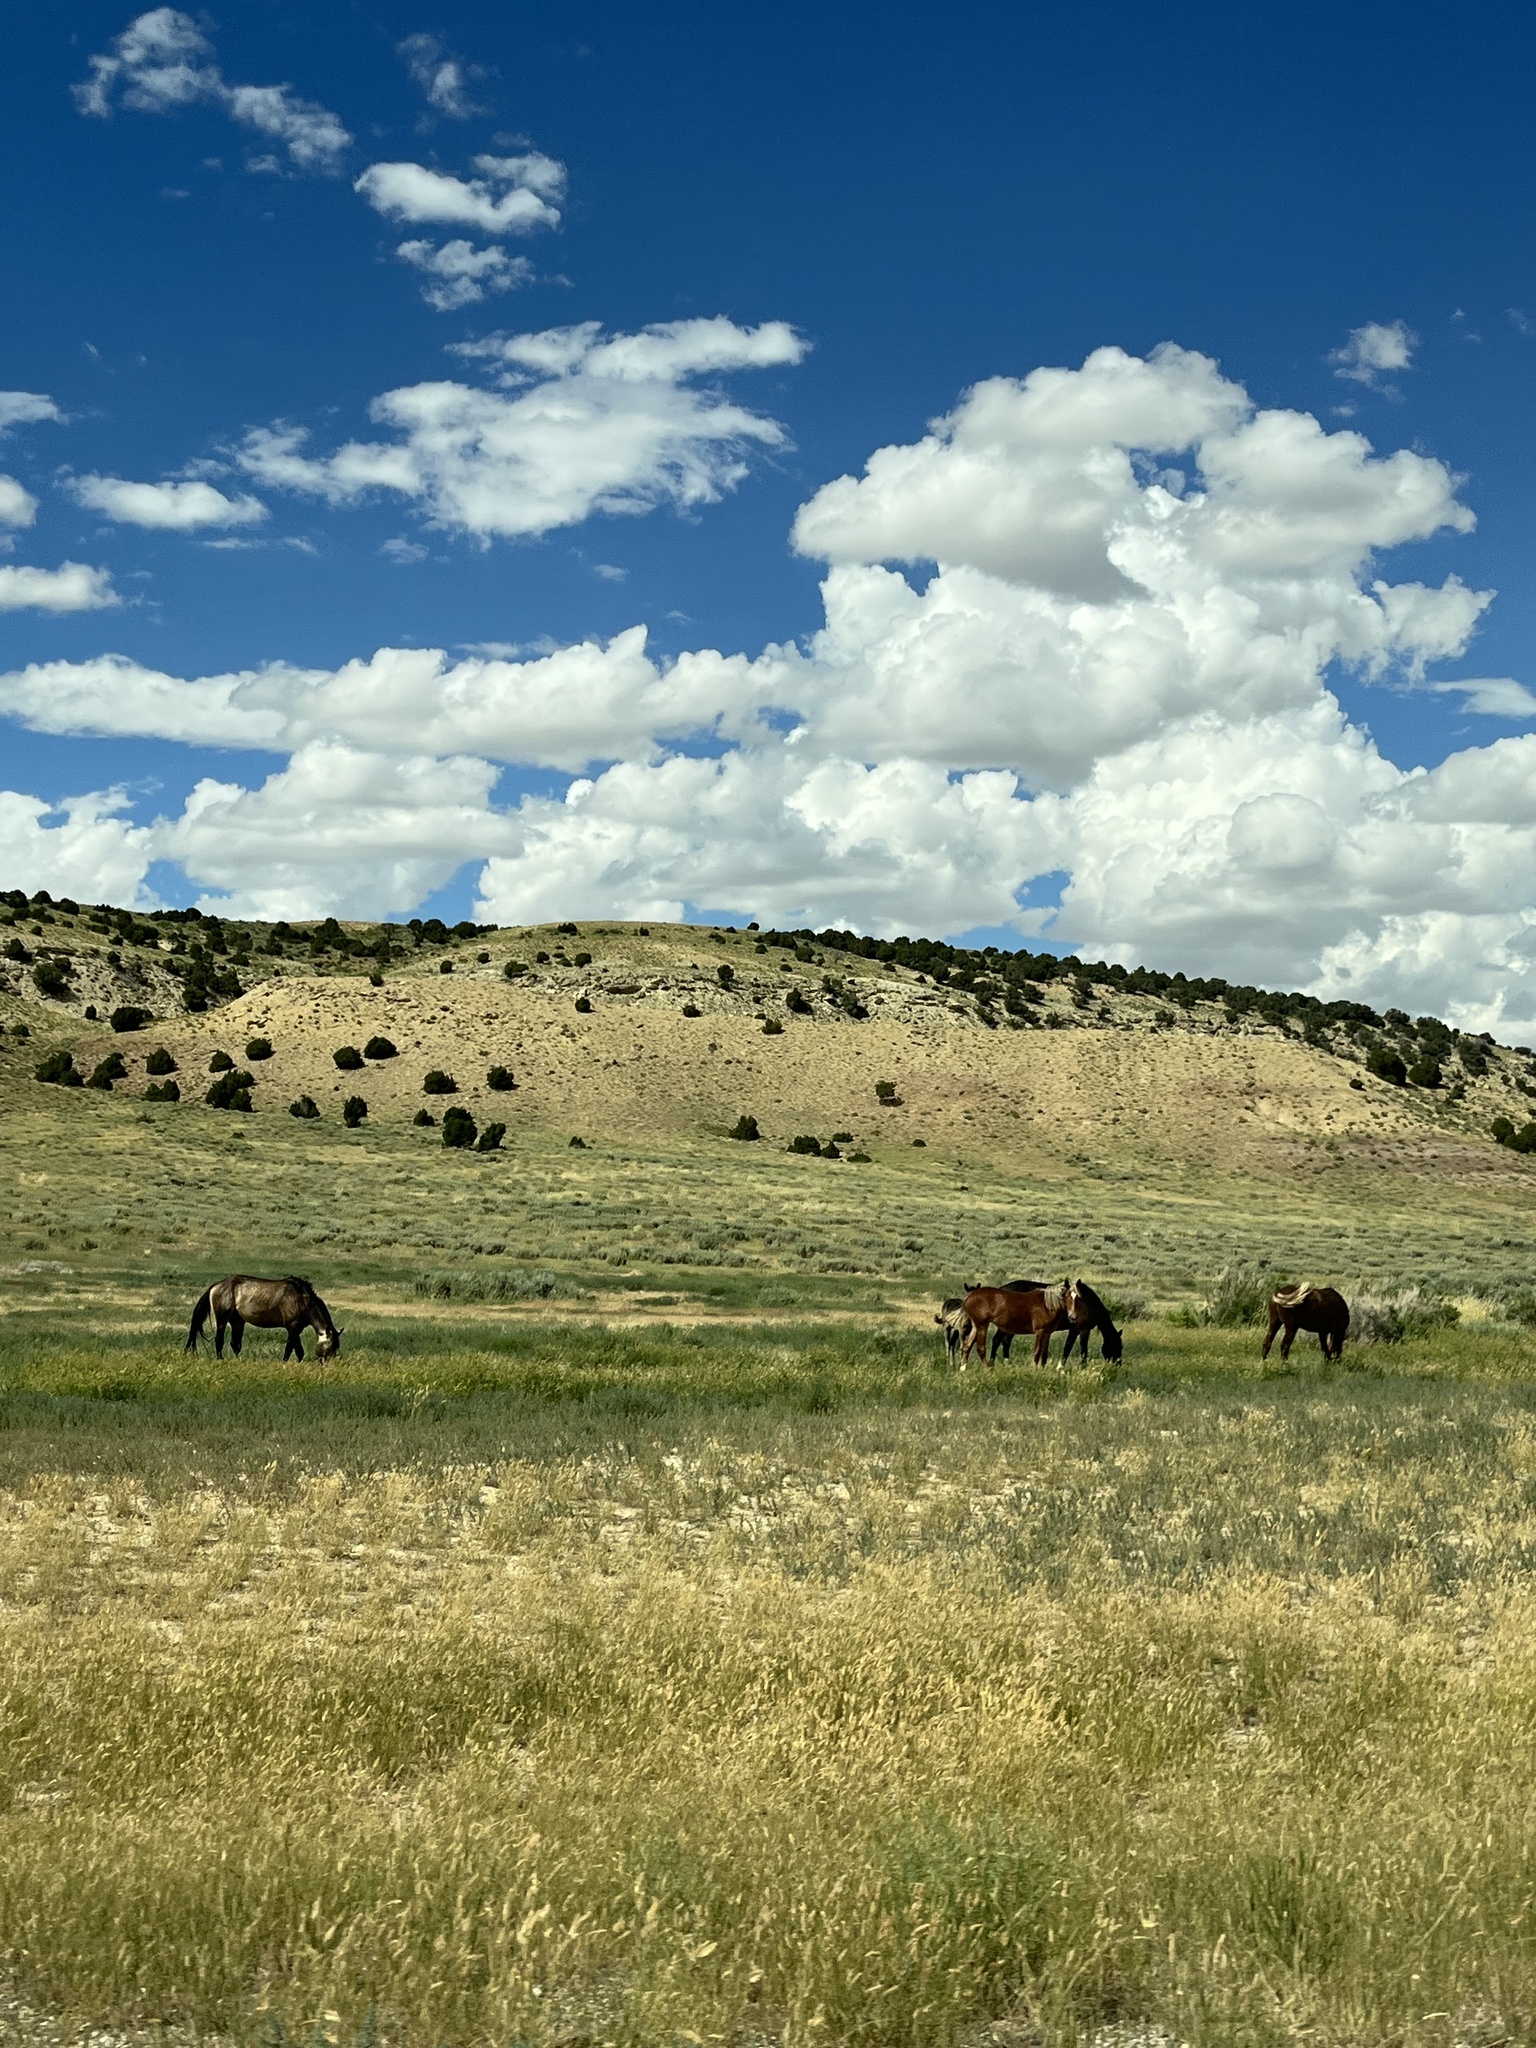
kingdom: Animalia
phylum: Chordata
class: Mammalia
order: Perissodactyla
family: Equidae
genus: Equus
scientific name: Equus caballus
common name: Horse
